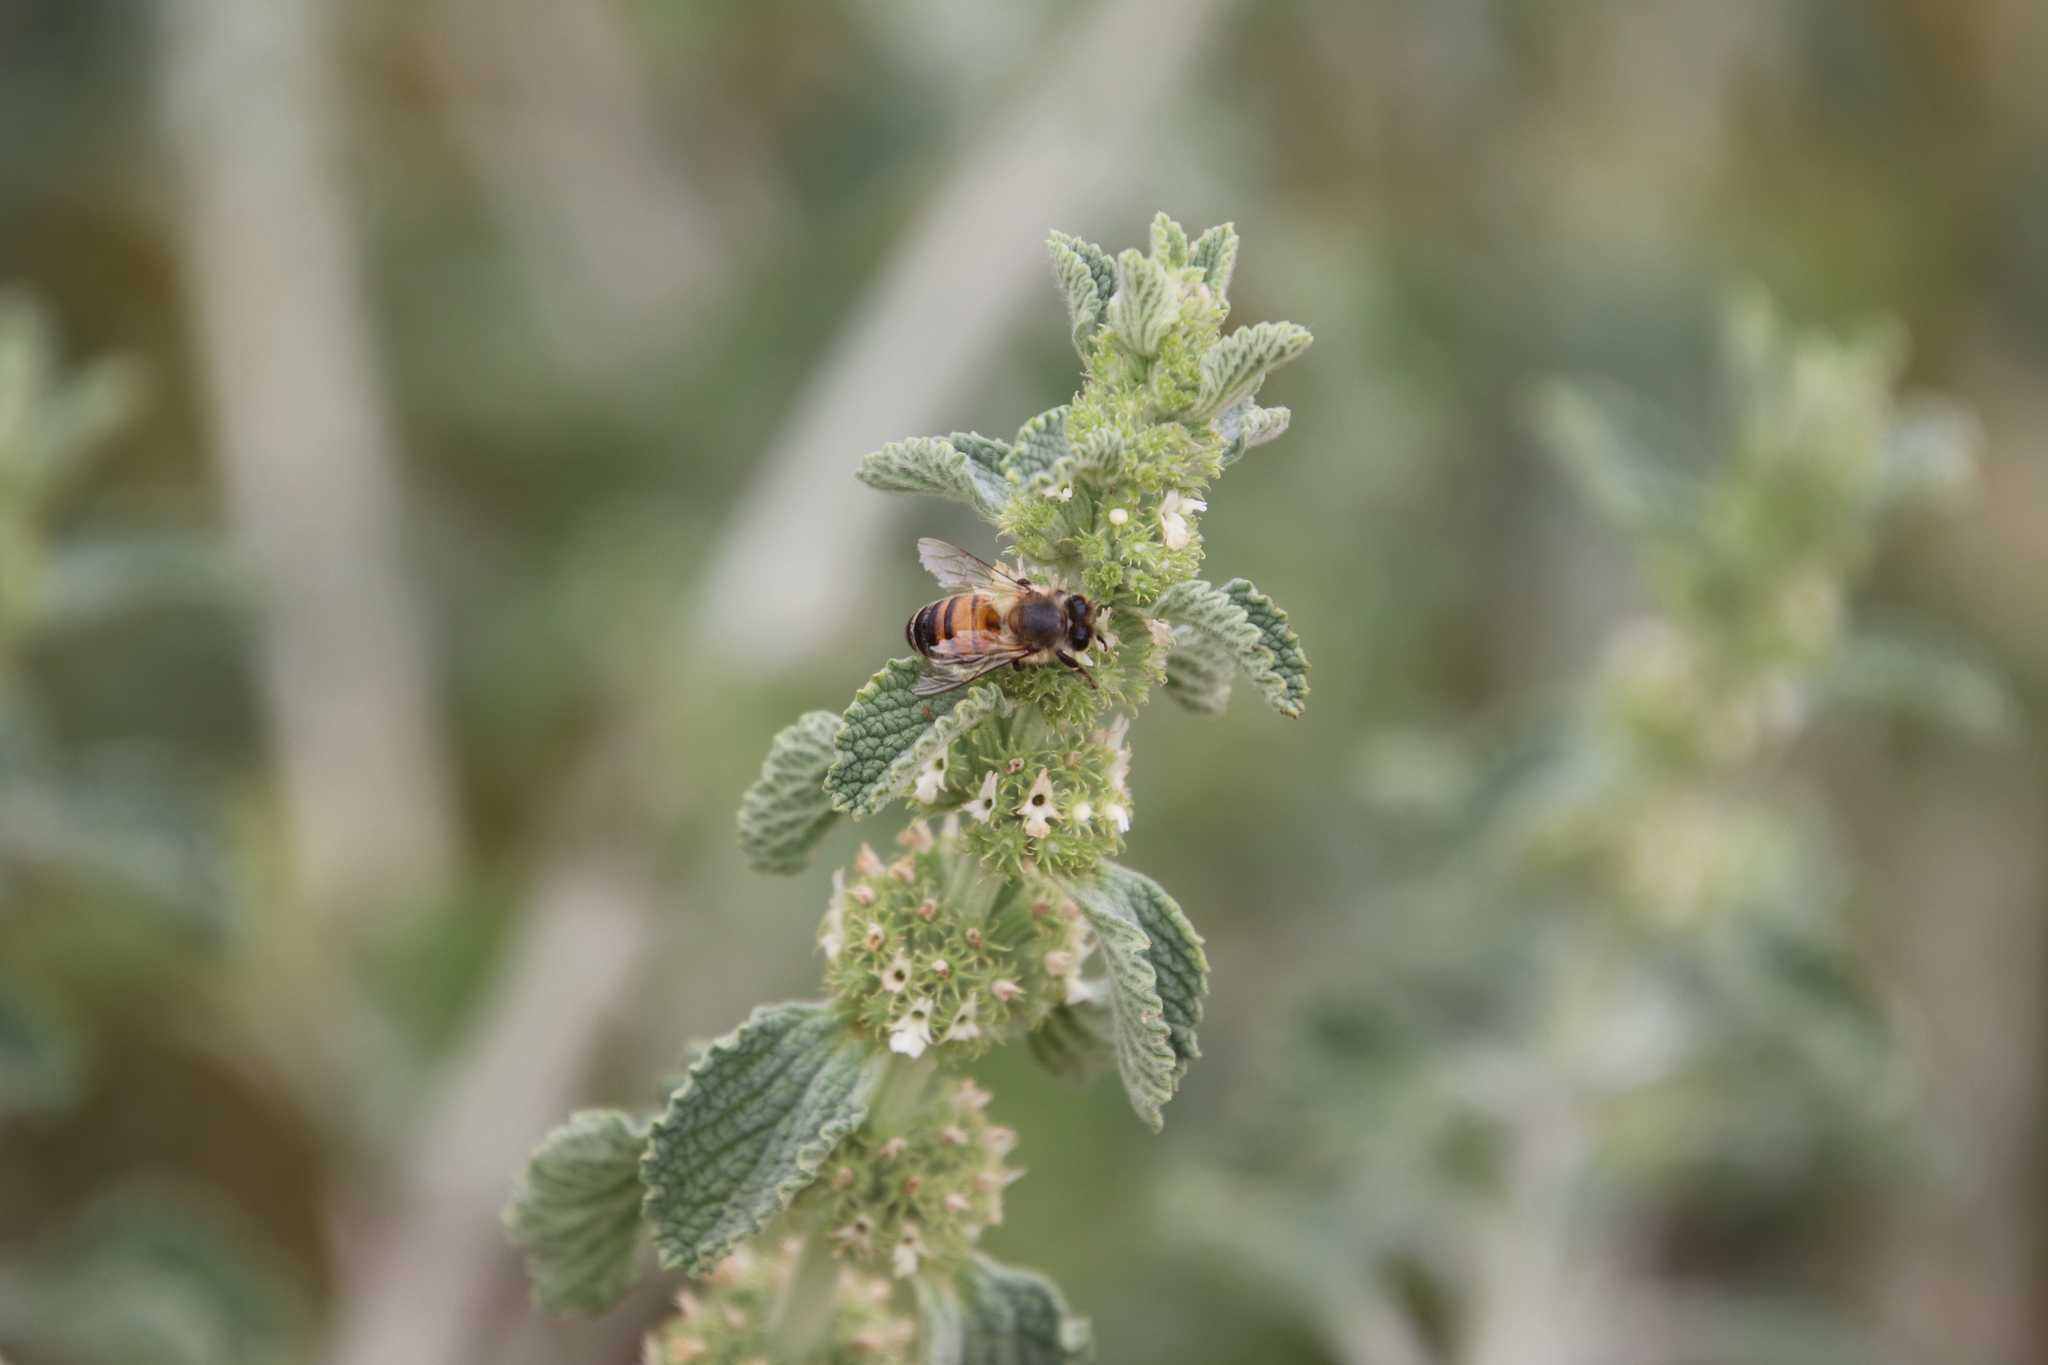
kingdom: Plantae
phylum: Tracheophyta
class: Magnoliopsida
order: Lamiales
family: Lamiaceae
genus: Marrubium
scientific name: Marrubium vulgare
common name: Horehound
